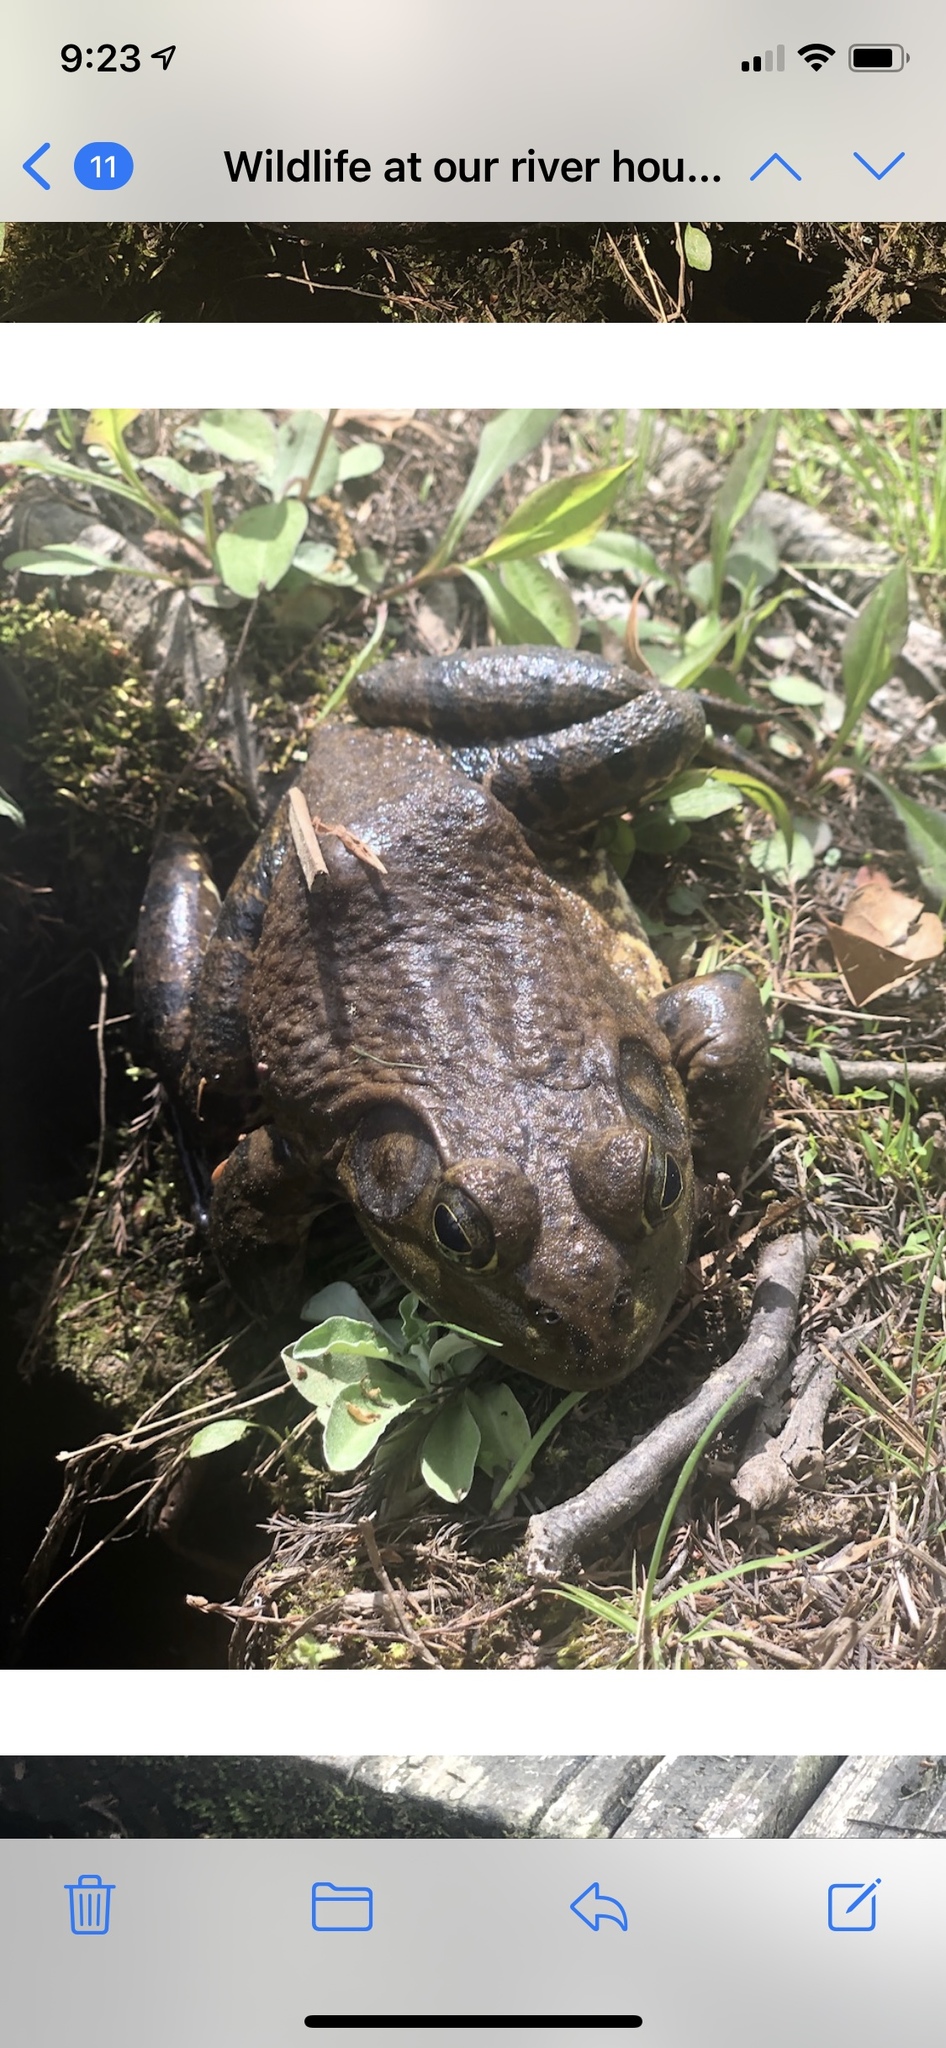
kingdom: Animalia
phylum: Chordata
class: Amphibia
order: Anura
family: Ranidae
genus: Lithobates
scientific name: Lithobates catesbeianus
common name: American bullfrog
